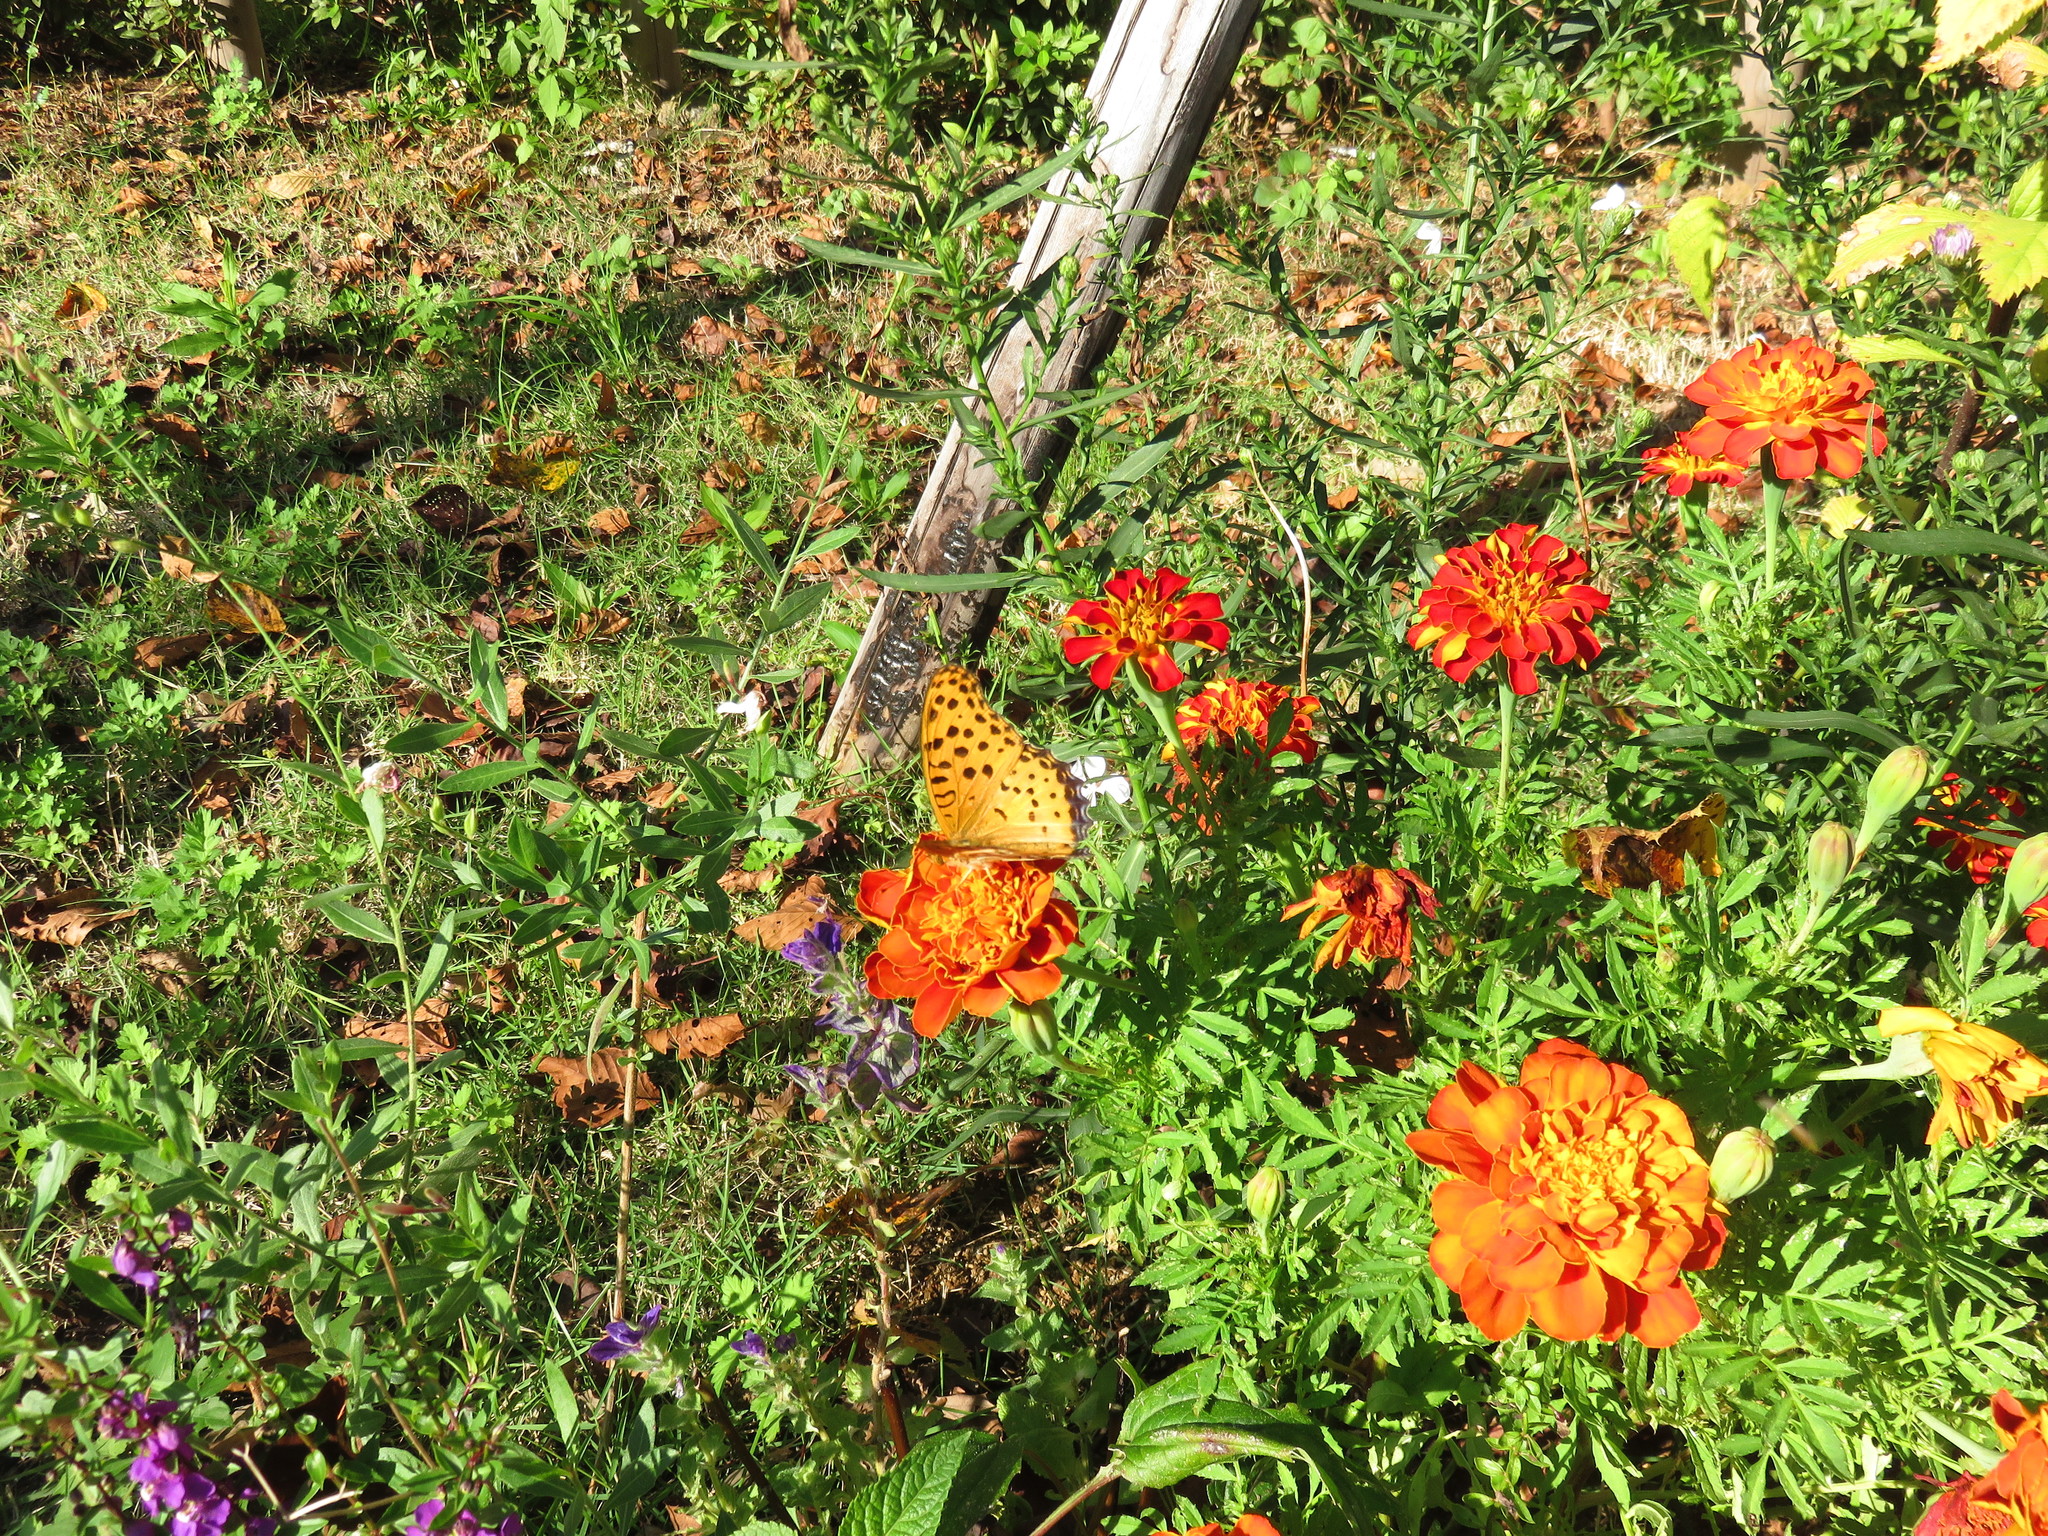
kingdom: Animalia
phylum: Arthropoda
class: Insecta
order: Lepidoptera
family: Nymphalidae
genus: Argynnis
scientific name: Argynnis hyperbius
